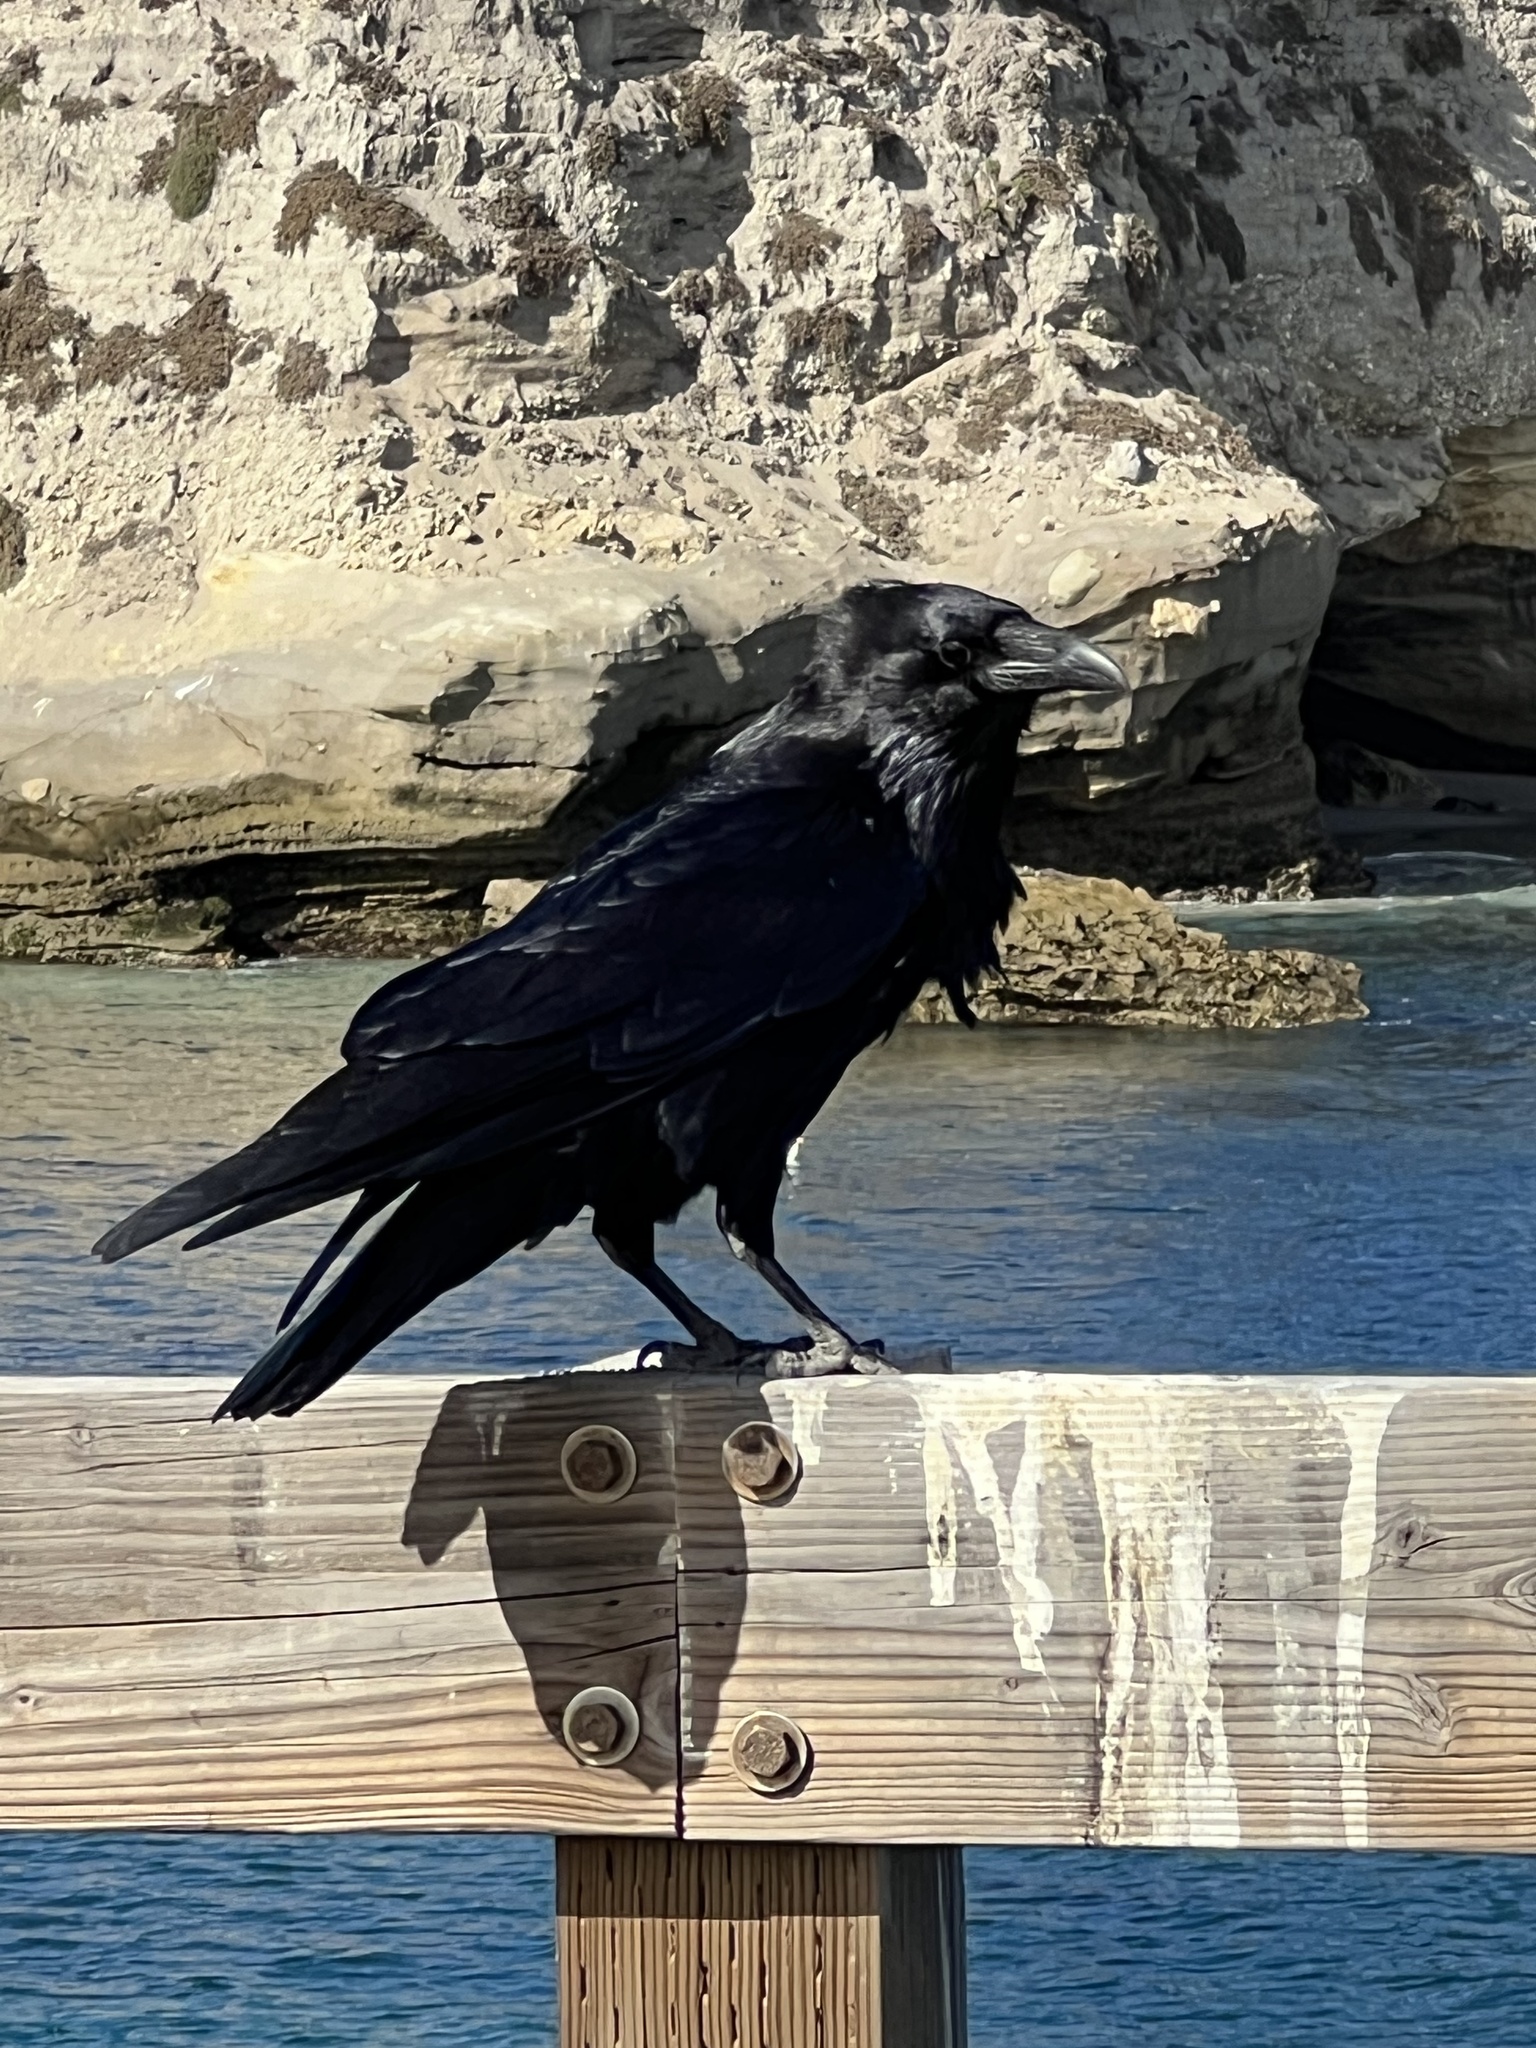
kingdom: Animalia
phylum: Chordata
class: Aves
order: Passeriformes
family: Corvidae
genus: Corvus
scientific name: Corvus corax
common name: Common raven
